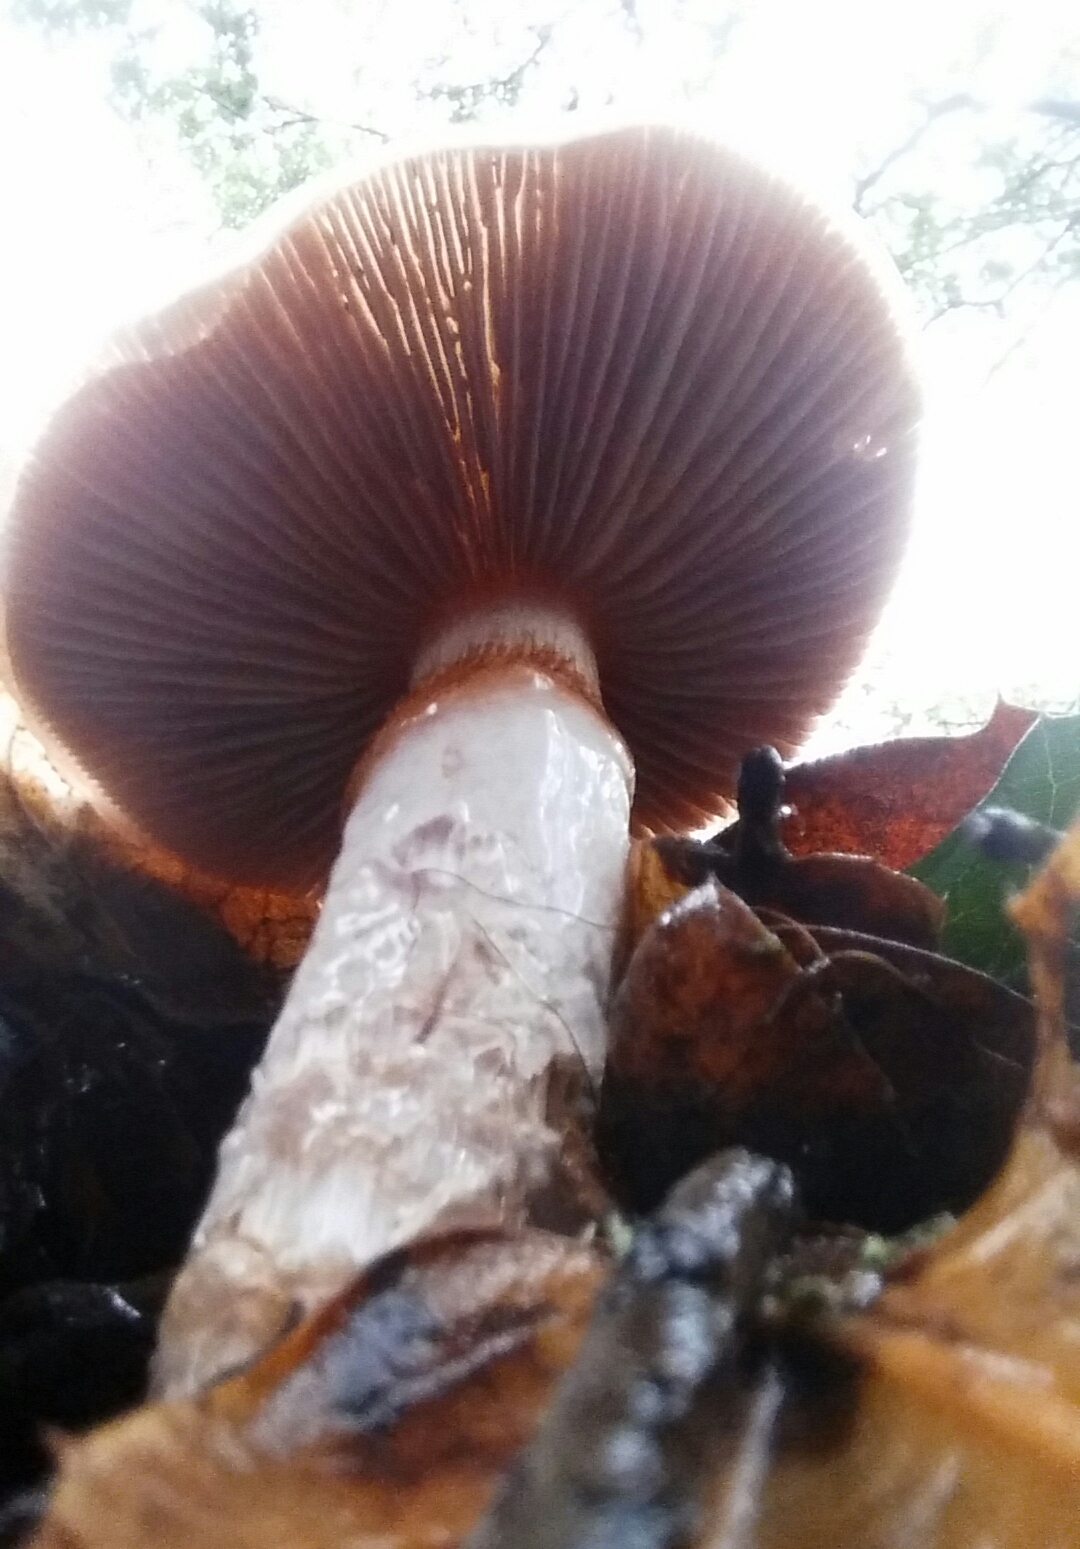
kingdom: Fungi
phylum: Basidiomycota
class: Agaricomycetes
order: Agaricales
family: Cortinariaceae
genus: Cortinarius
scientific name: Cortinarius glutinosoarmillatus
